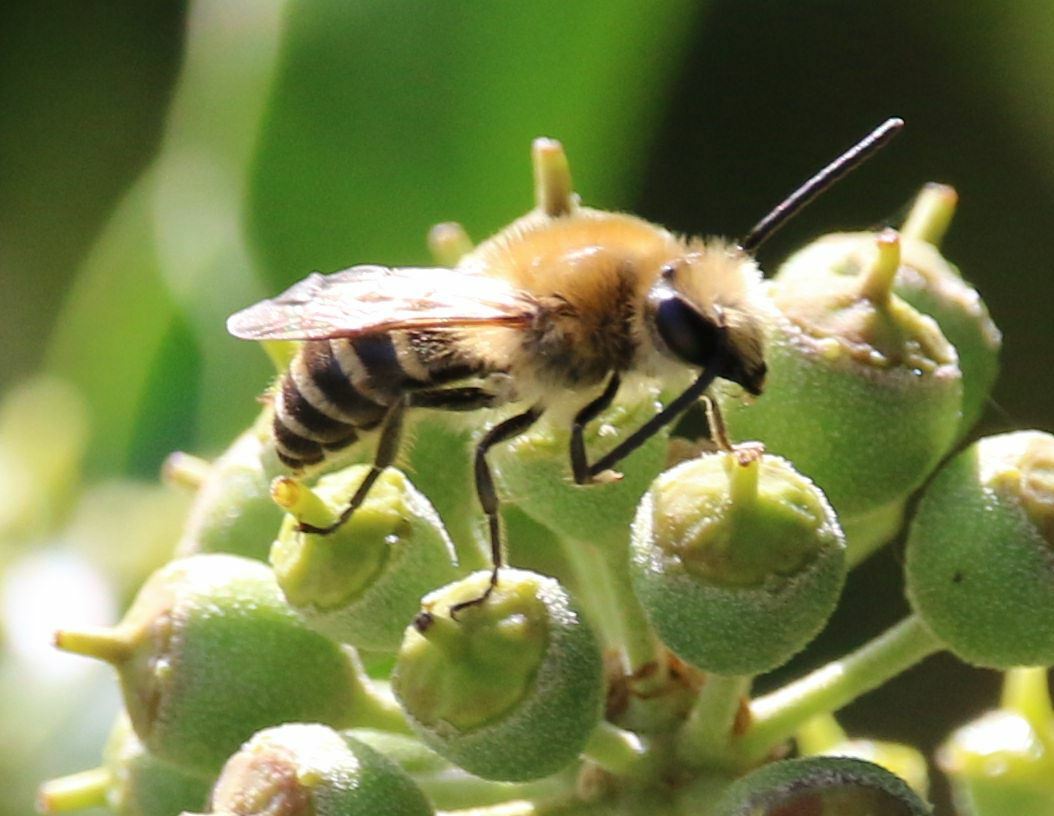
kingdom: Animalia
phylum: Arthropoda
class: Insecta
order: Hymenoptera
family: Colletidae
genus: Colletes
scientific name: Colletes hederae
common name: Ivy bee
